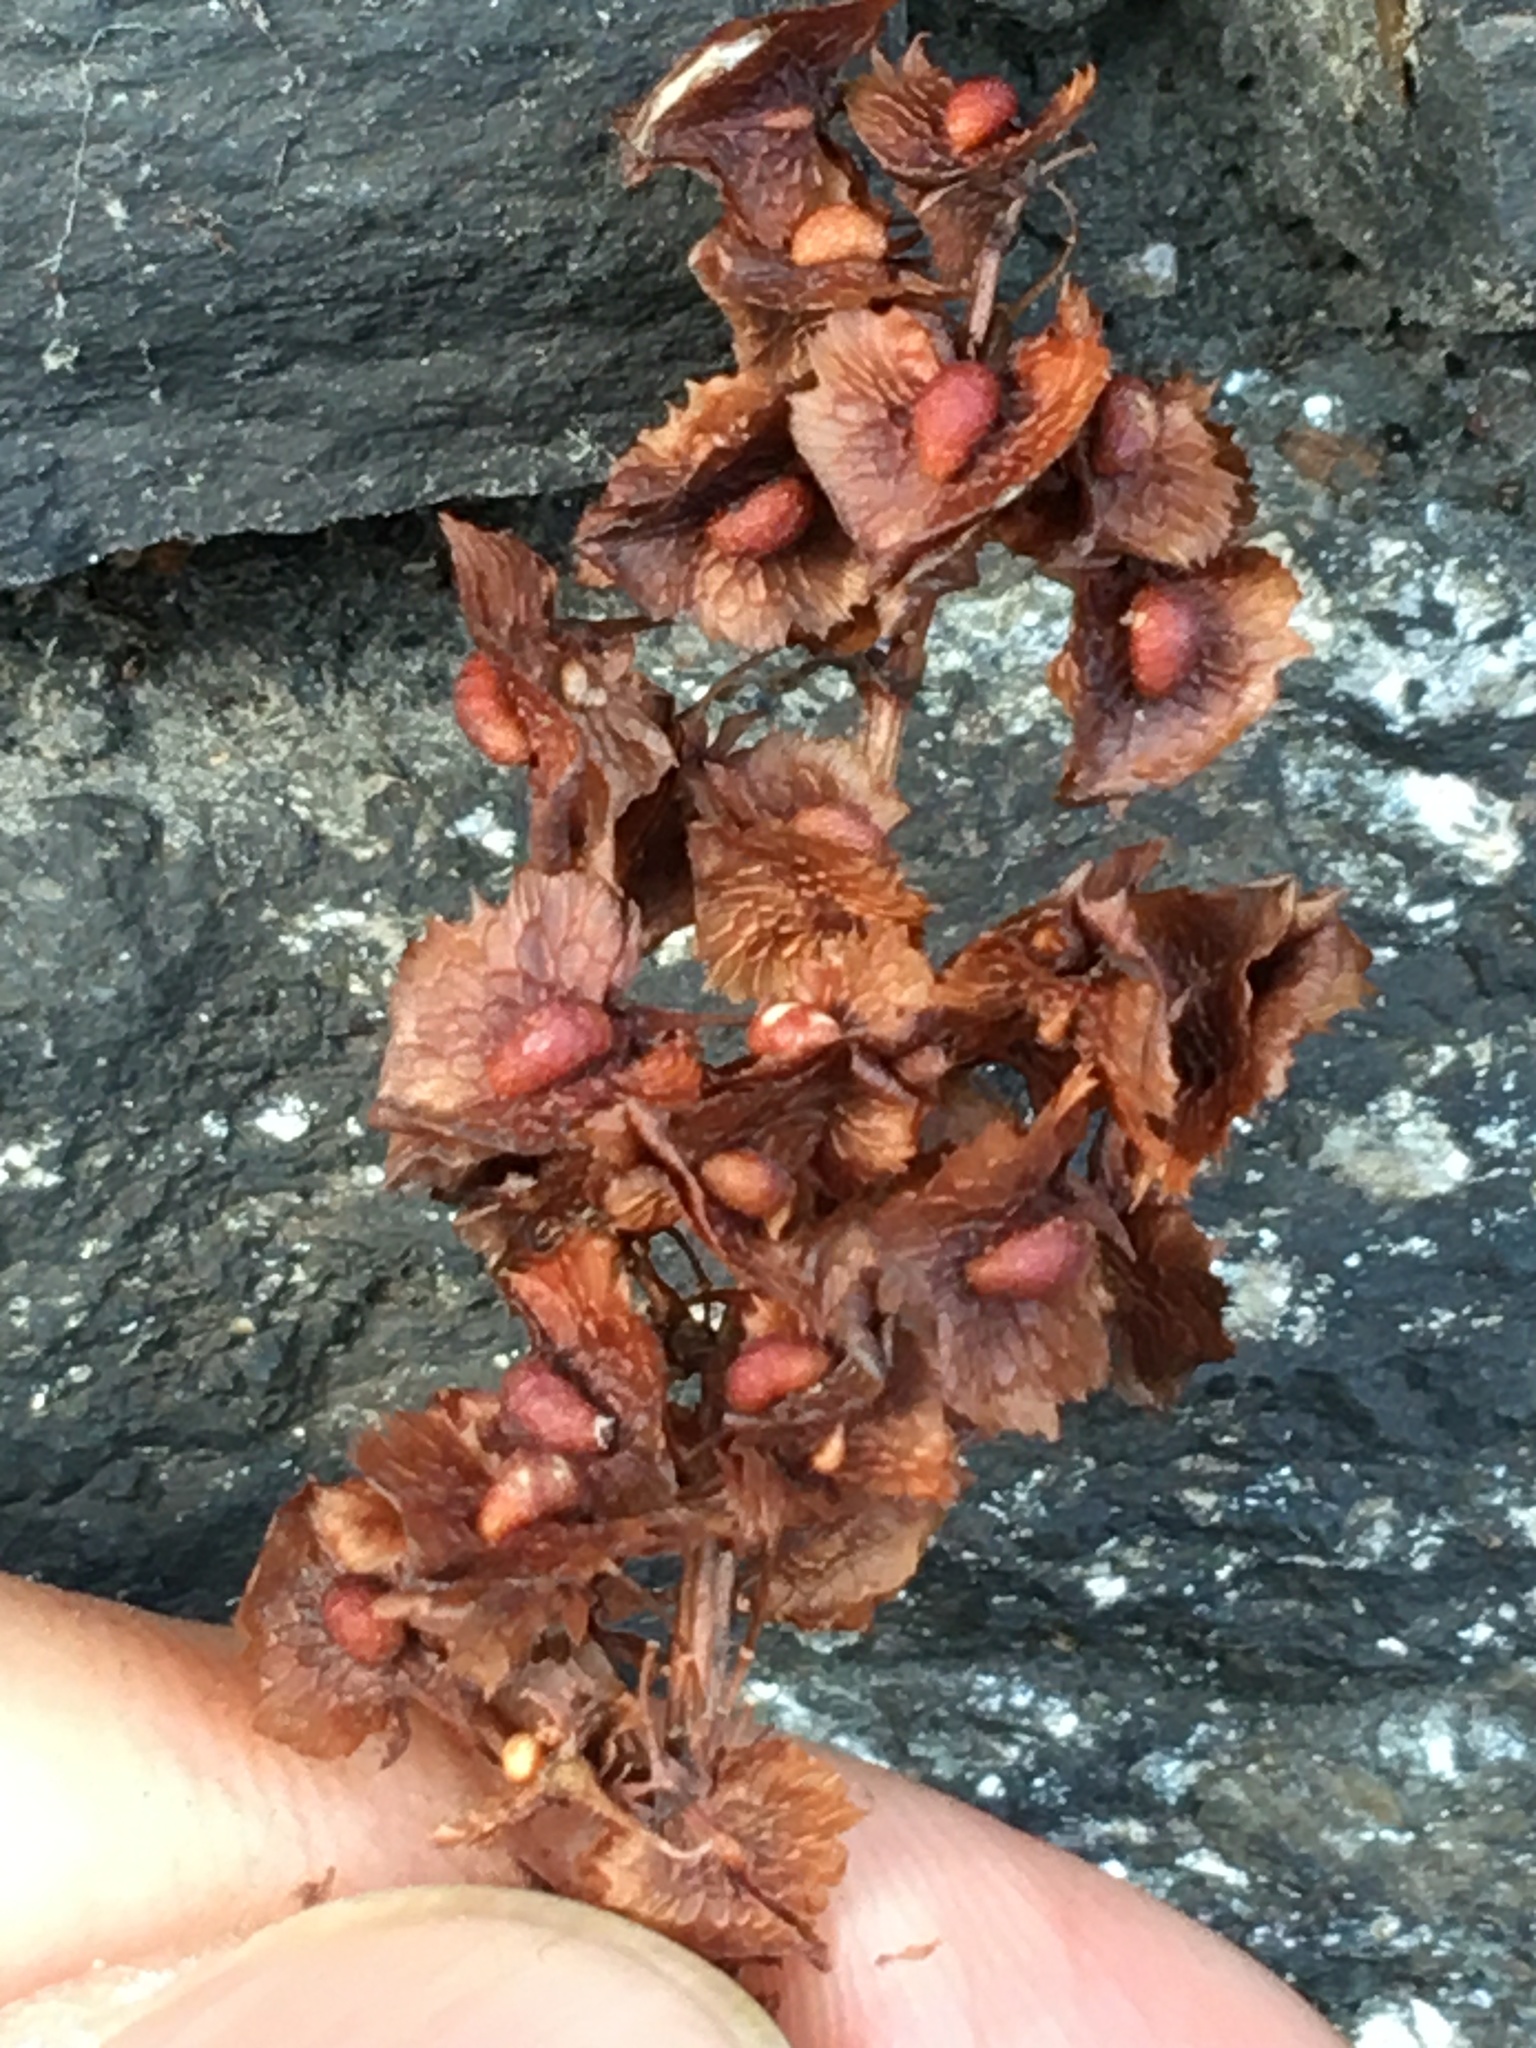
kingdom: Plantae
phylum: Tracheophyta
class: Magnoliopsida
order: Caryophyllales
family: Polygonaceae
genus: Rumex
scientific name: Rumex cristatus
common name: Greek dock
